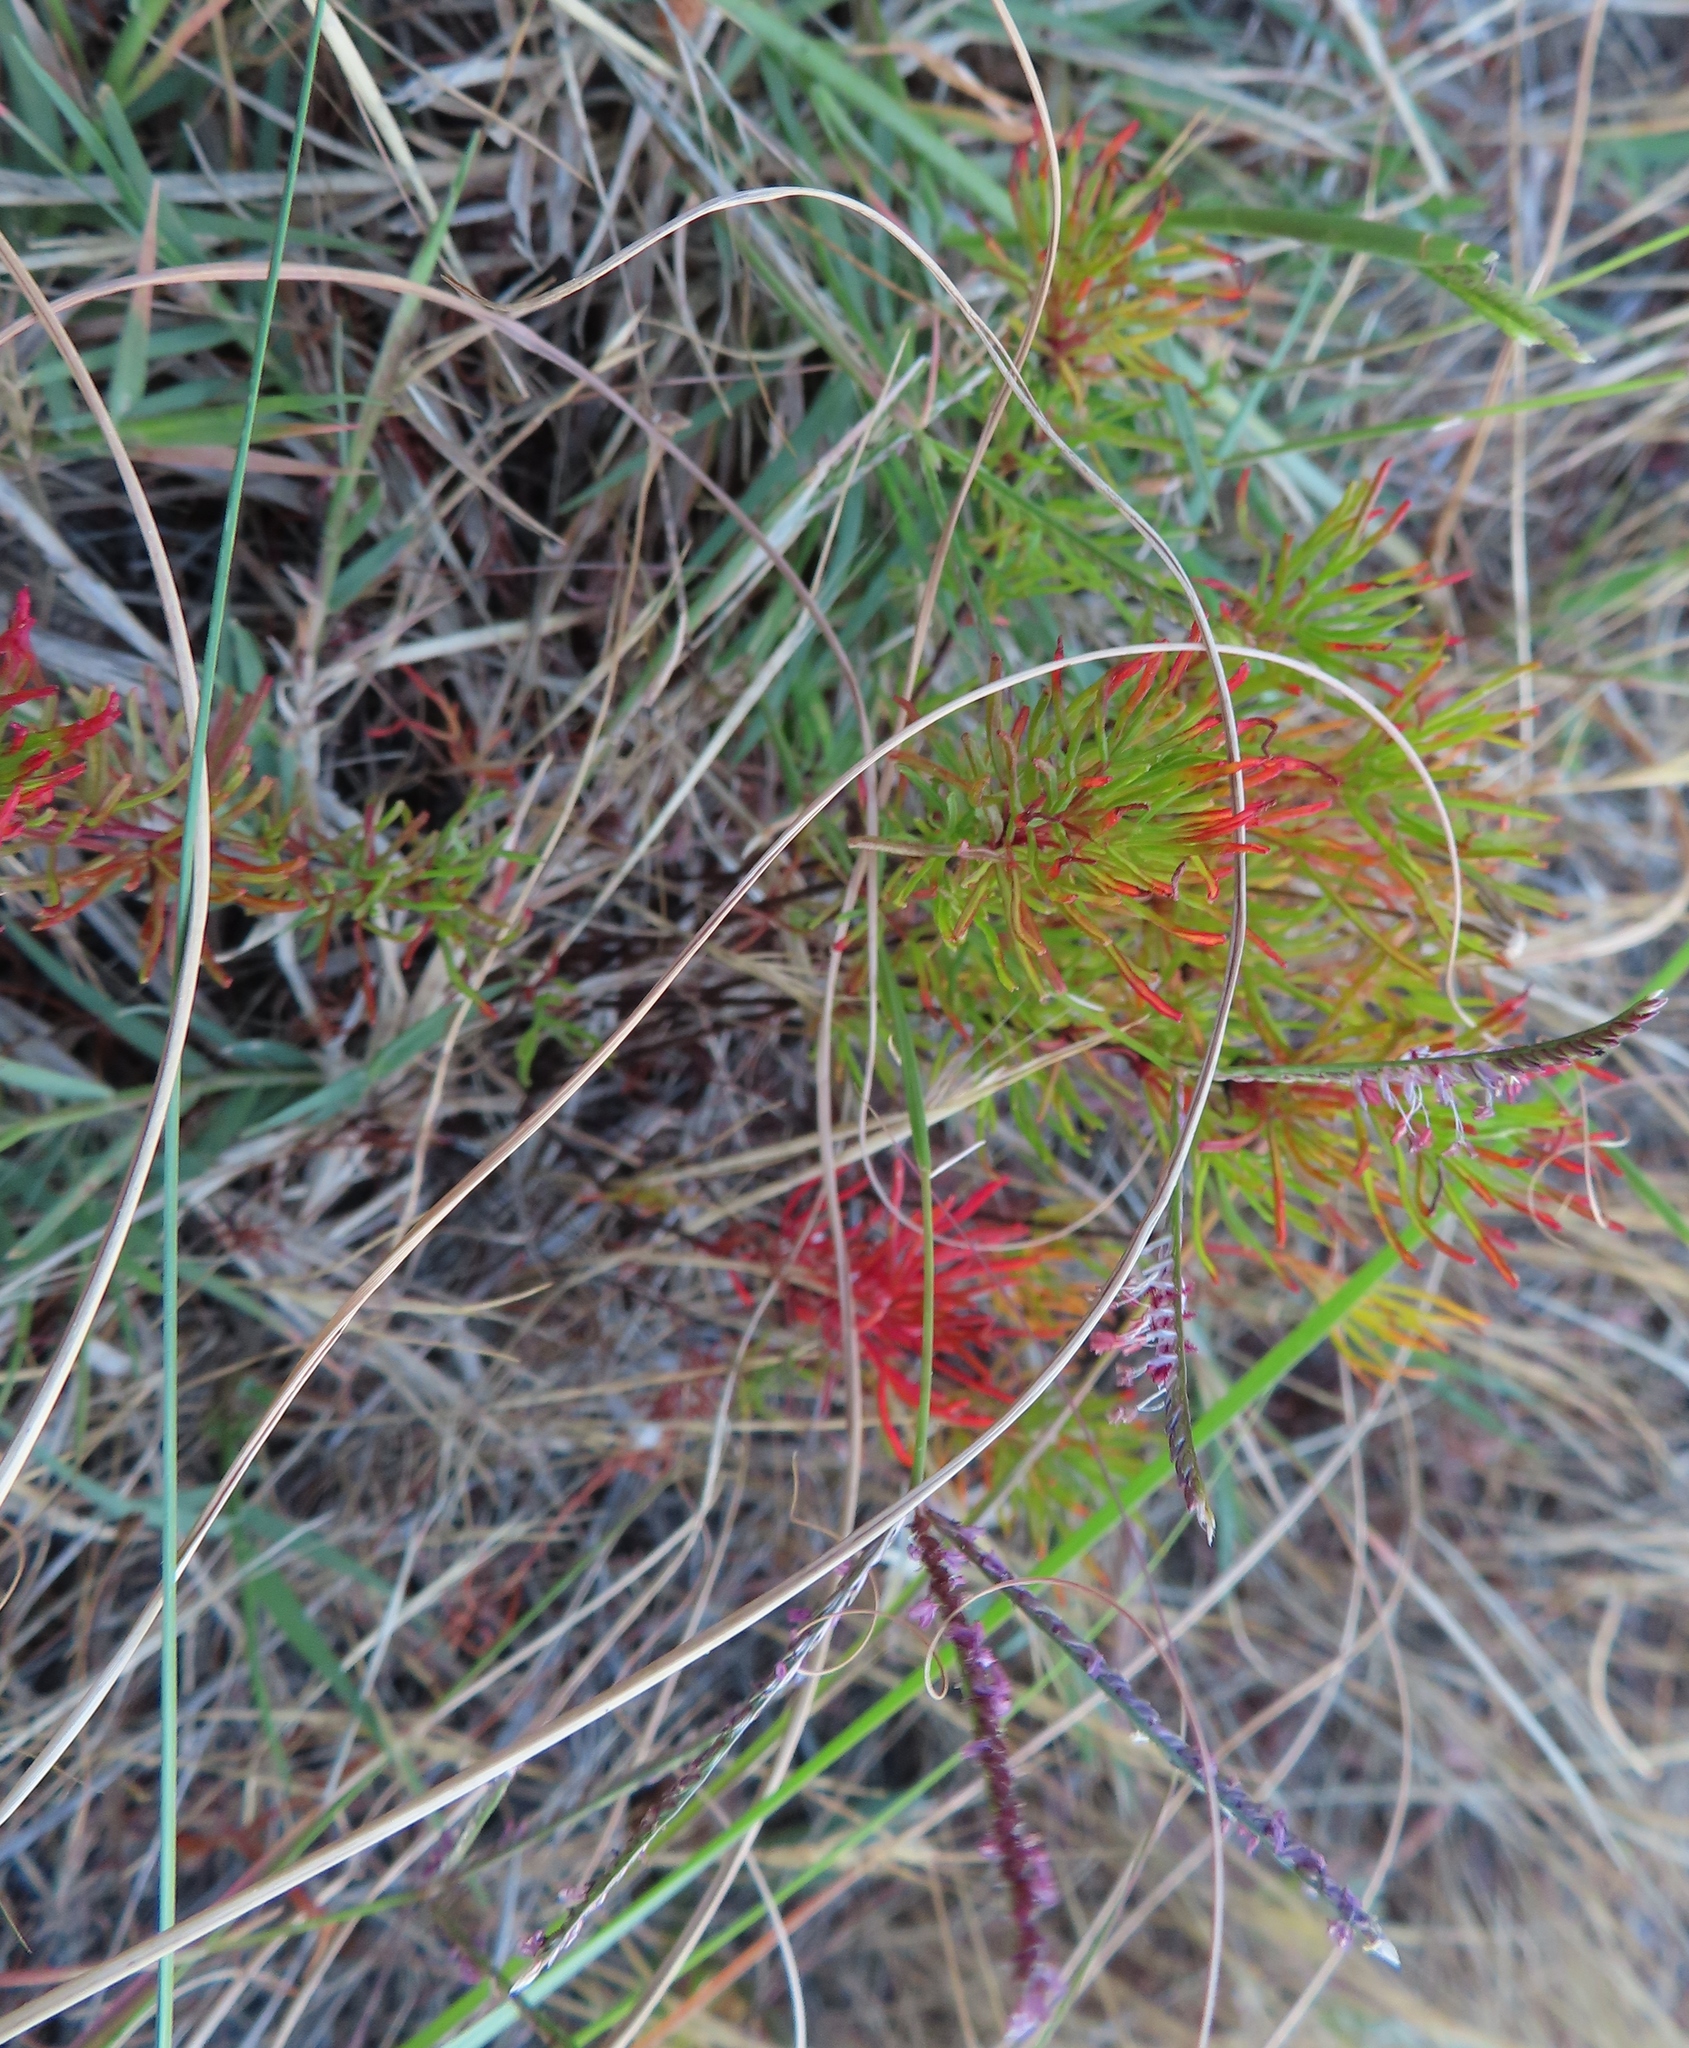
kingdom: Plantae
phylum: Tracheophyta
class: Magnoliopsida
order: Oxalidales
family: Oxalidaceae
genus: Oxalis
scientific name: Oxalis tenuifolia
